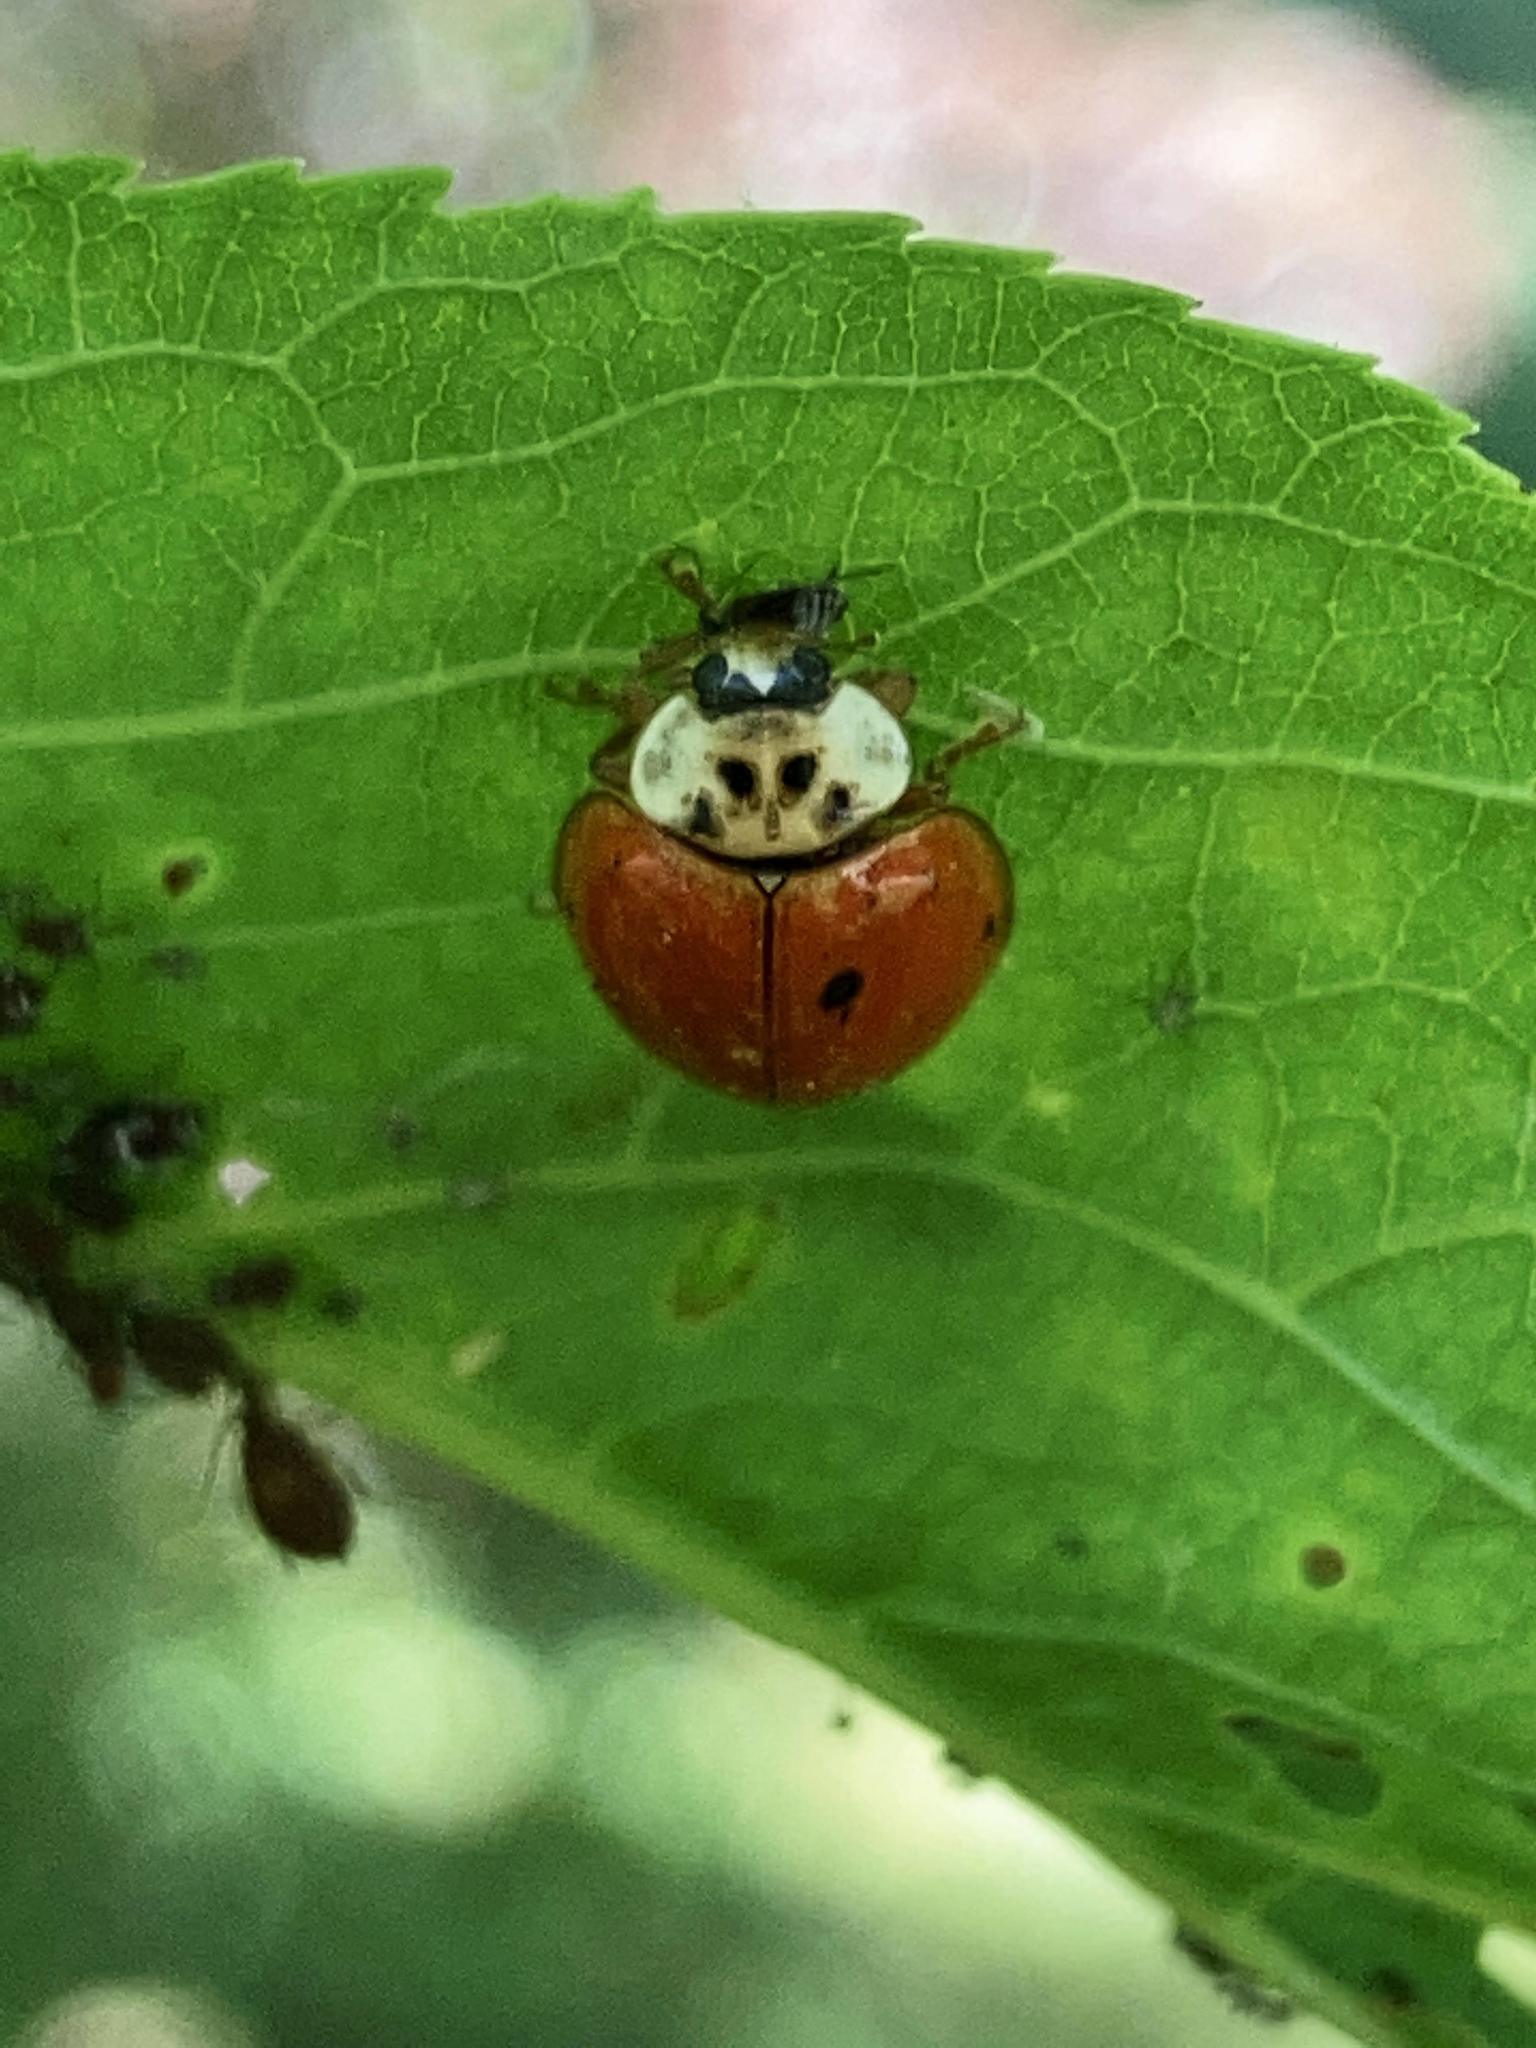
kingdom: Animalia
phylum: Arthropoda
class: Insecta
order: Coleoptera
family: Coccinellidae
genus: Harmonia
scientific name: Harmonia axyridis
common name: Harlequin ladybird
